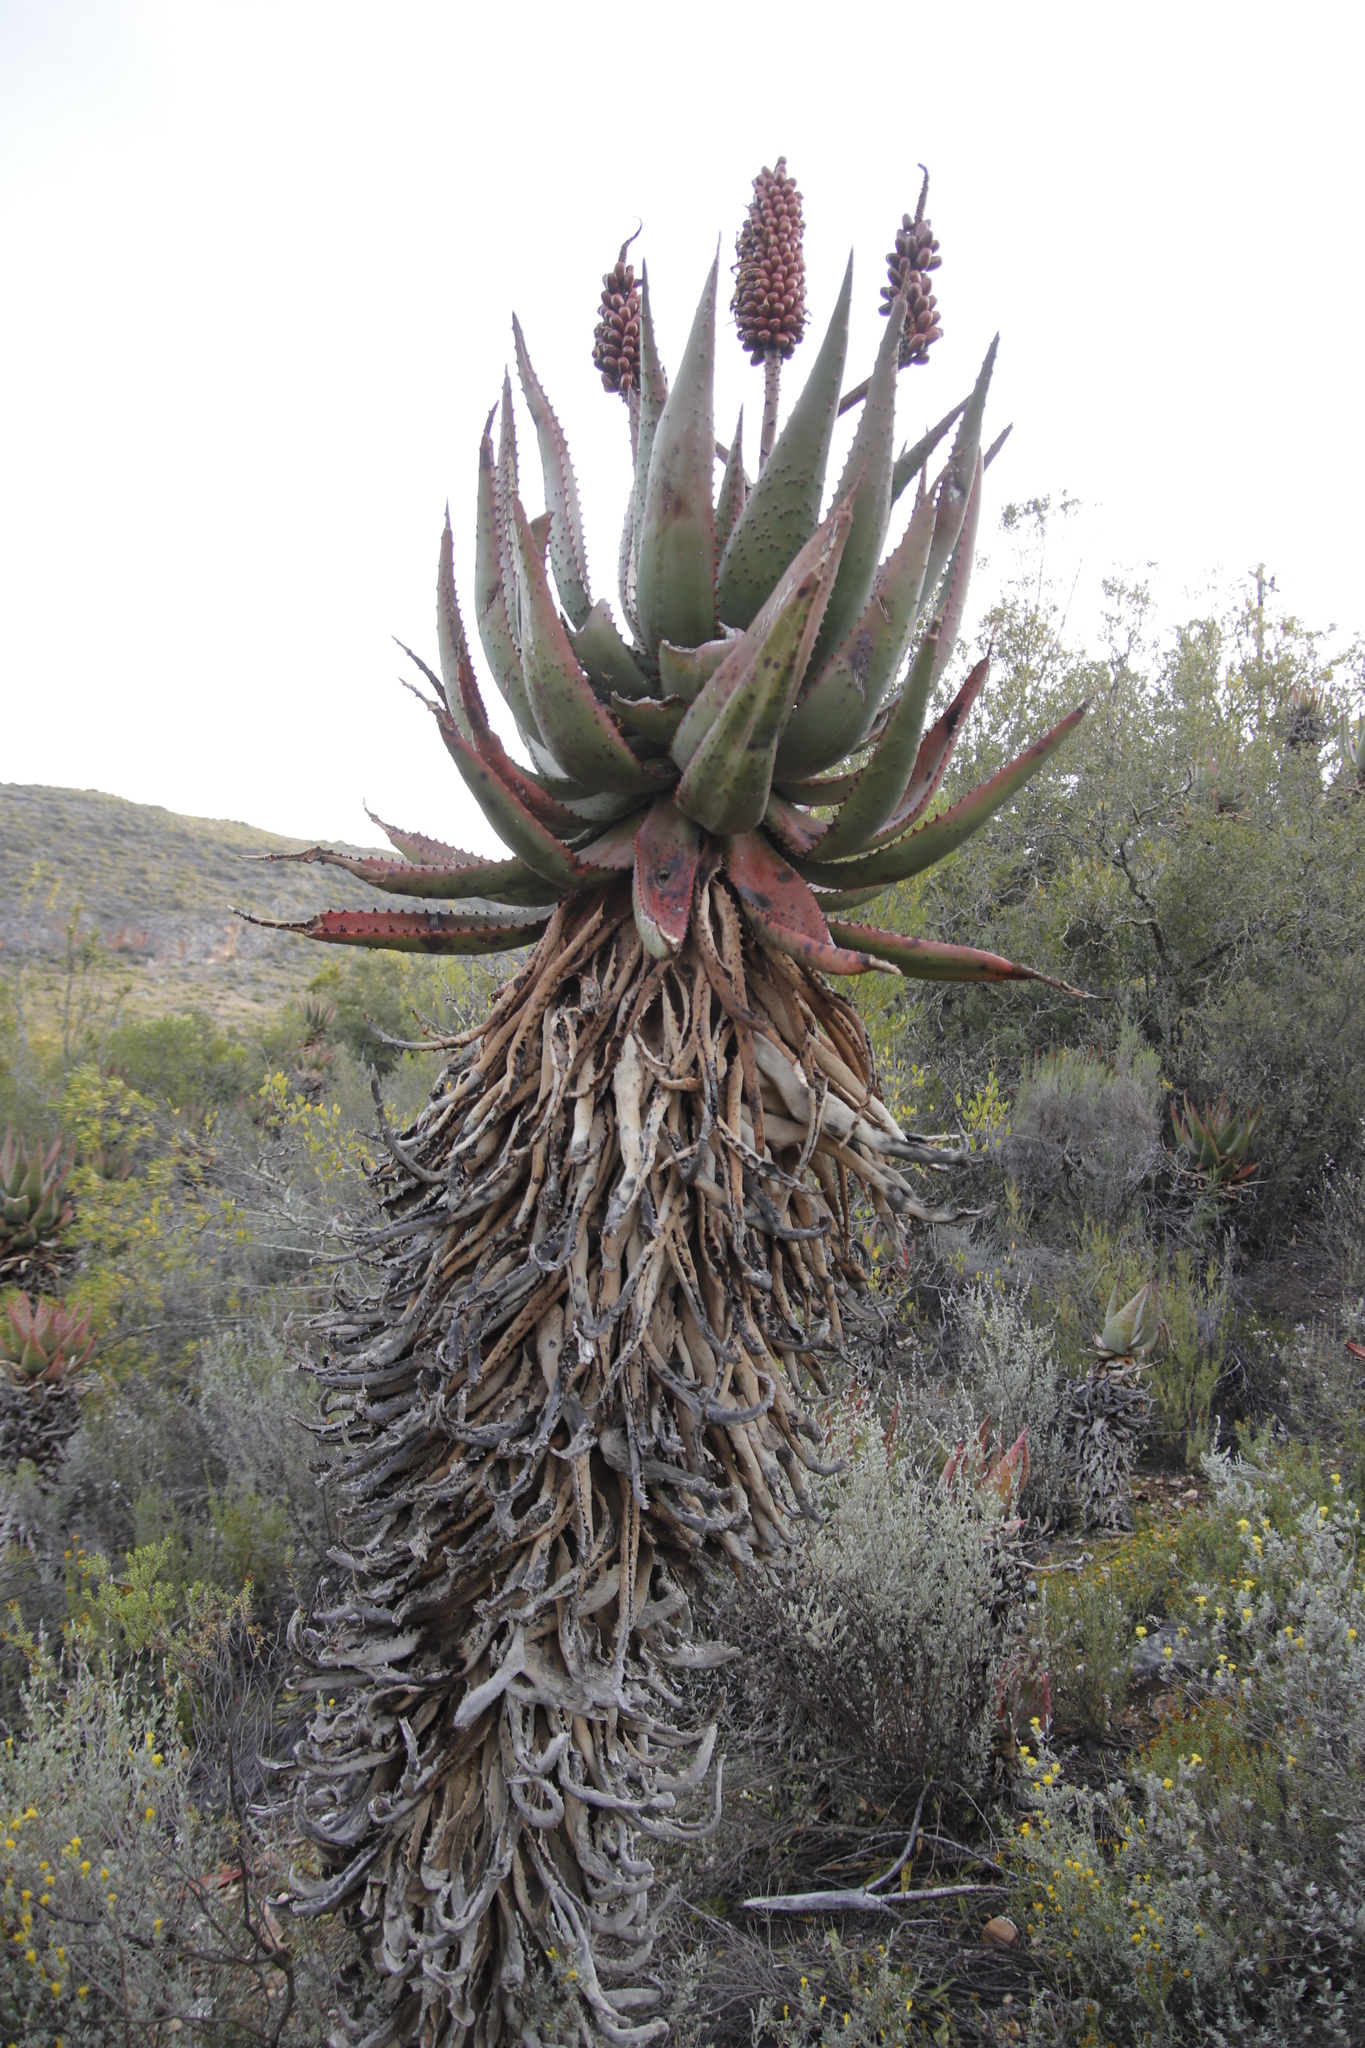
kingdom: Plantae
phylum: Tracheophyta
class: Liliopsida
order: Asparagales
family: Asphodelaceae
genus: Aloe
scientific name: Aloe ferox
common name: Bitter aloe
